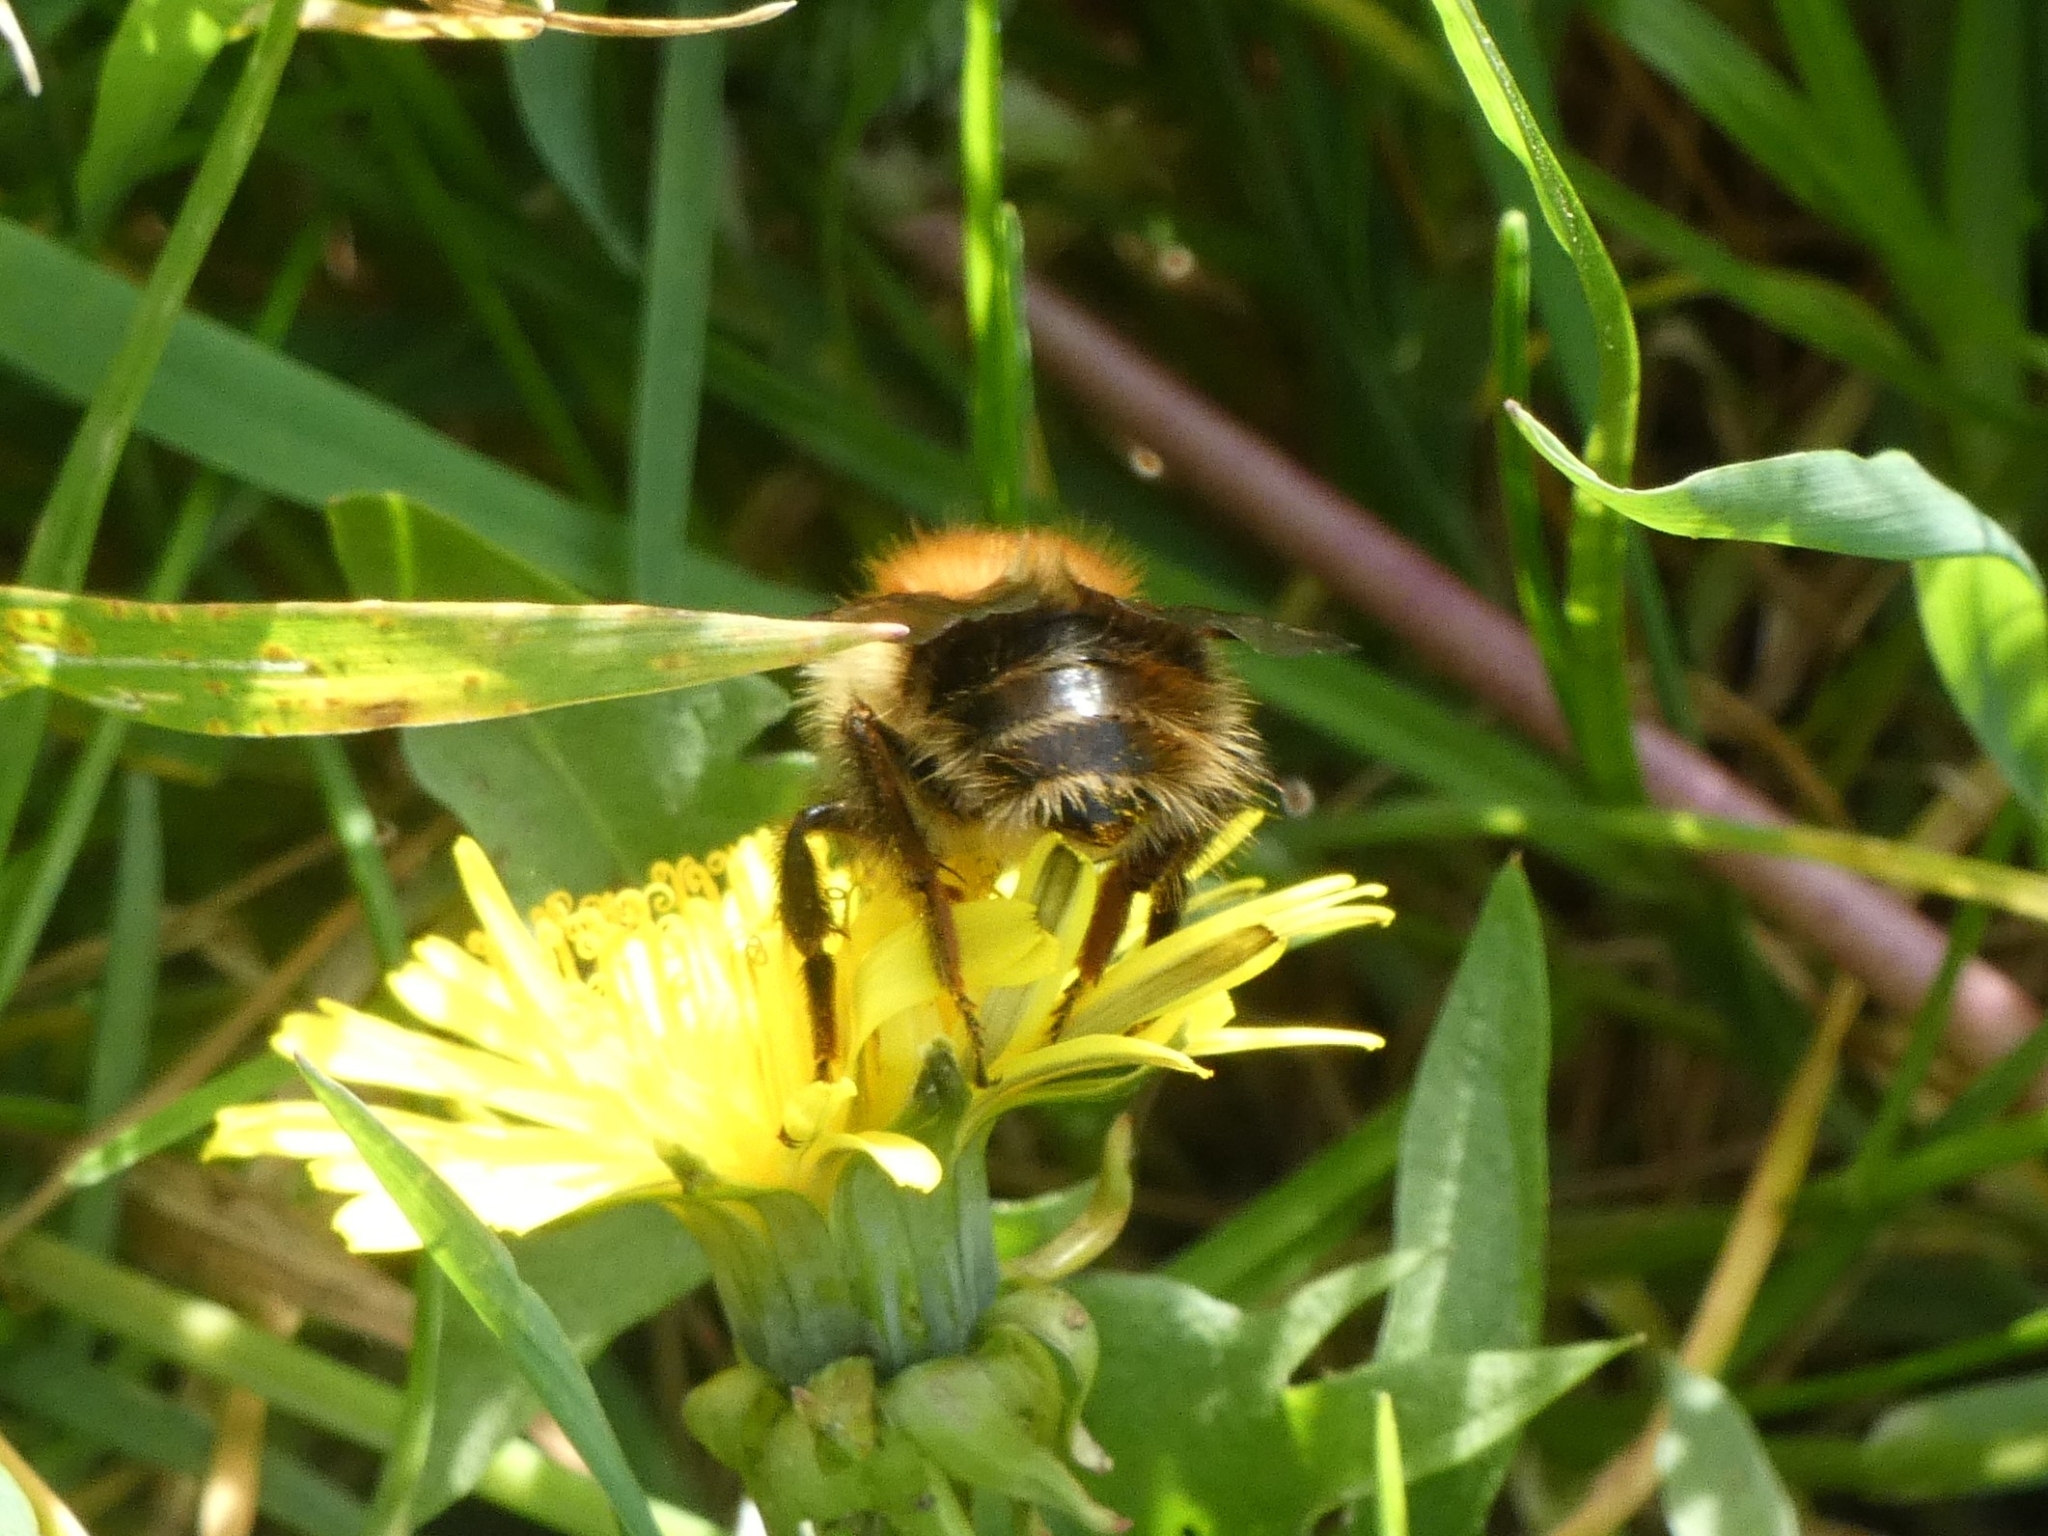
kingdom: Animalia
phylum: Arthropoda
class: Insecta
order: Hymenoptera
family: Apidae
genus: Bombus
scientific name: Bombus pascuorum
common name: Common carder bee
